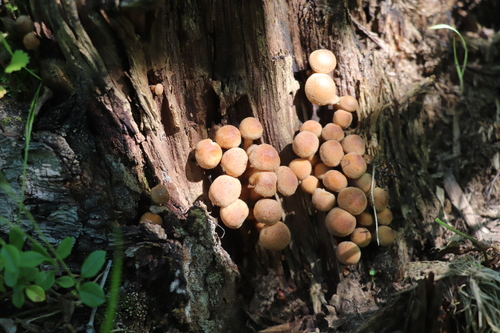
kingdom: Fungi
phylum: Basidiomycota
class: Agaricomycetes
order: Agaricales
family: Strophariaceae
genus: Kuehneromyces
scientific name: Kuehneromyces mutabilis
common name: Sheathed woodtuft
